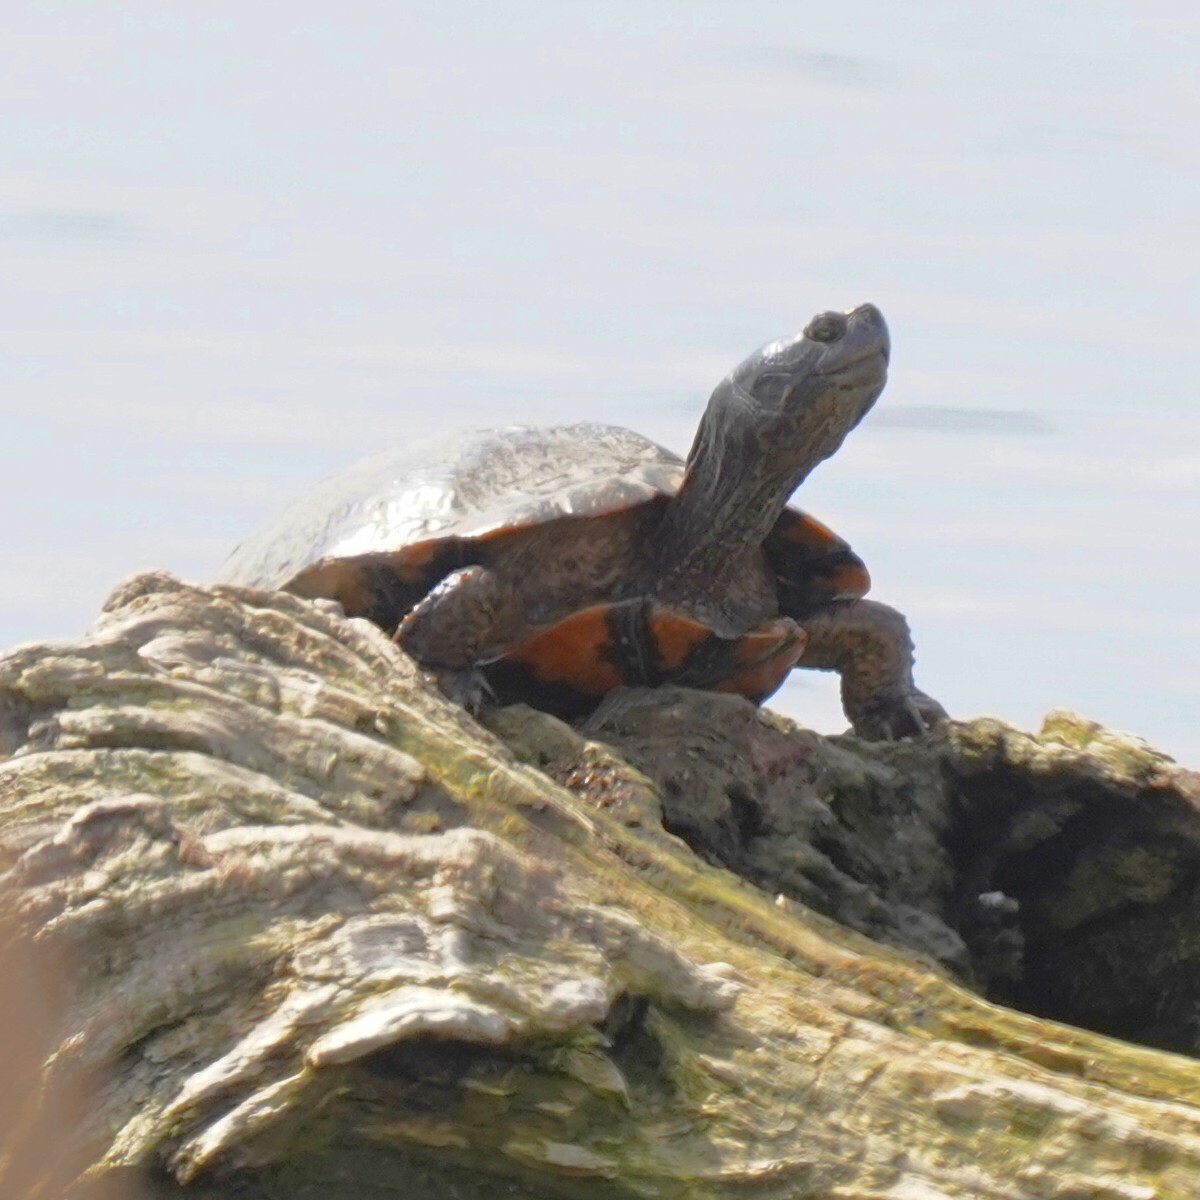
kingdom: Animalia
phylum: Chordata
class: Testudines
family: Emydidae
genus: Trachemys
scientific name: Trachemys scripta
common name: Slider
